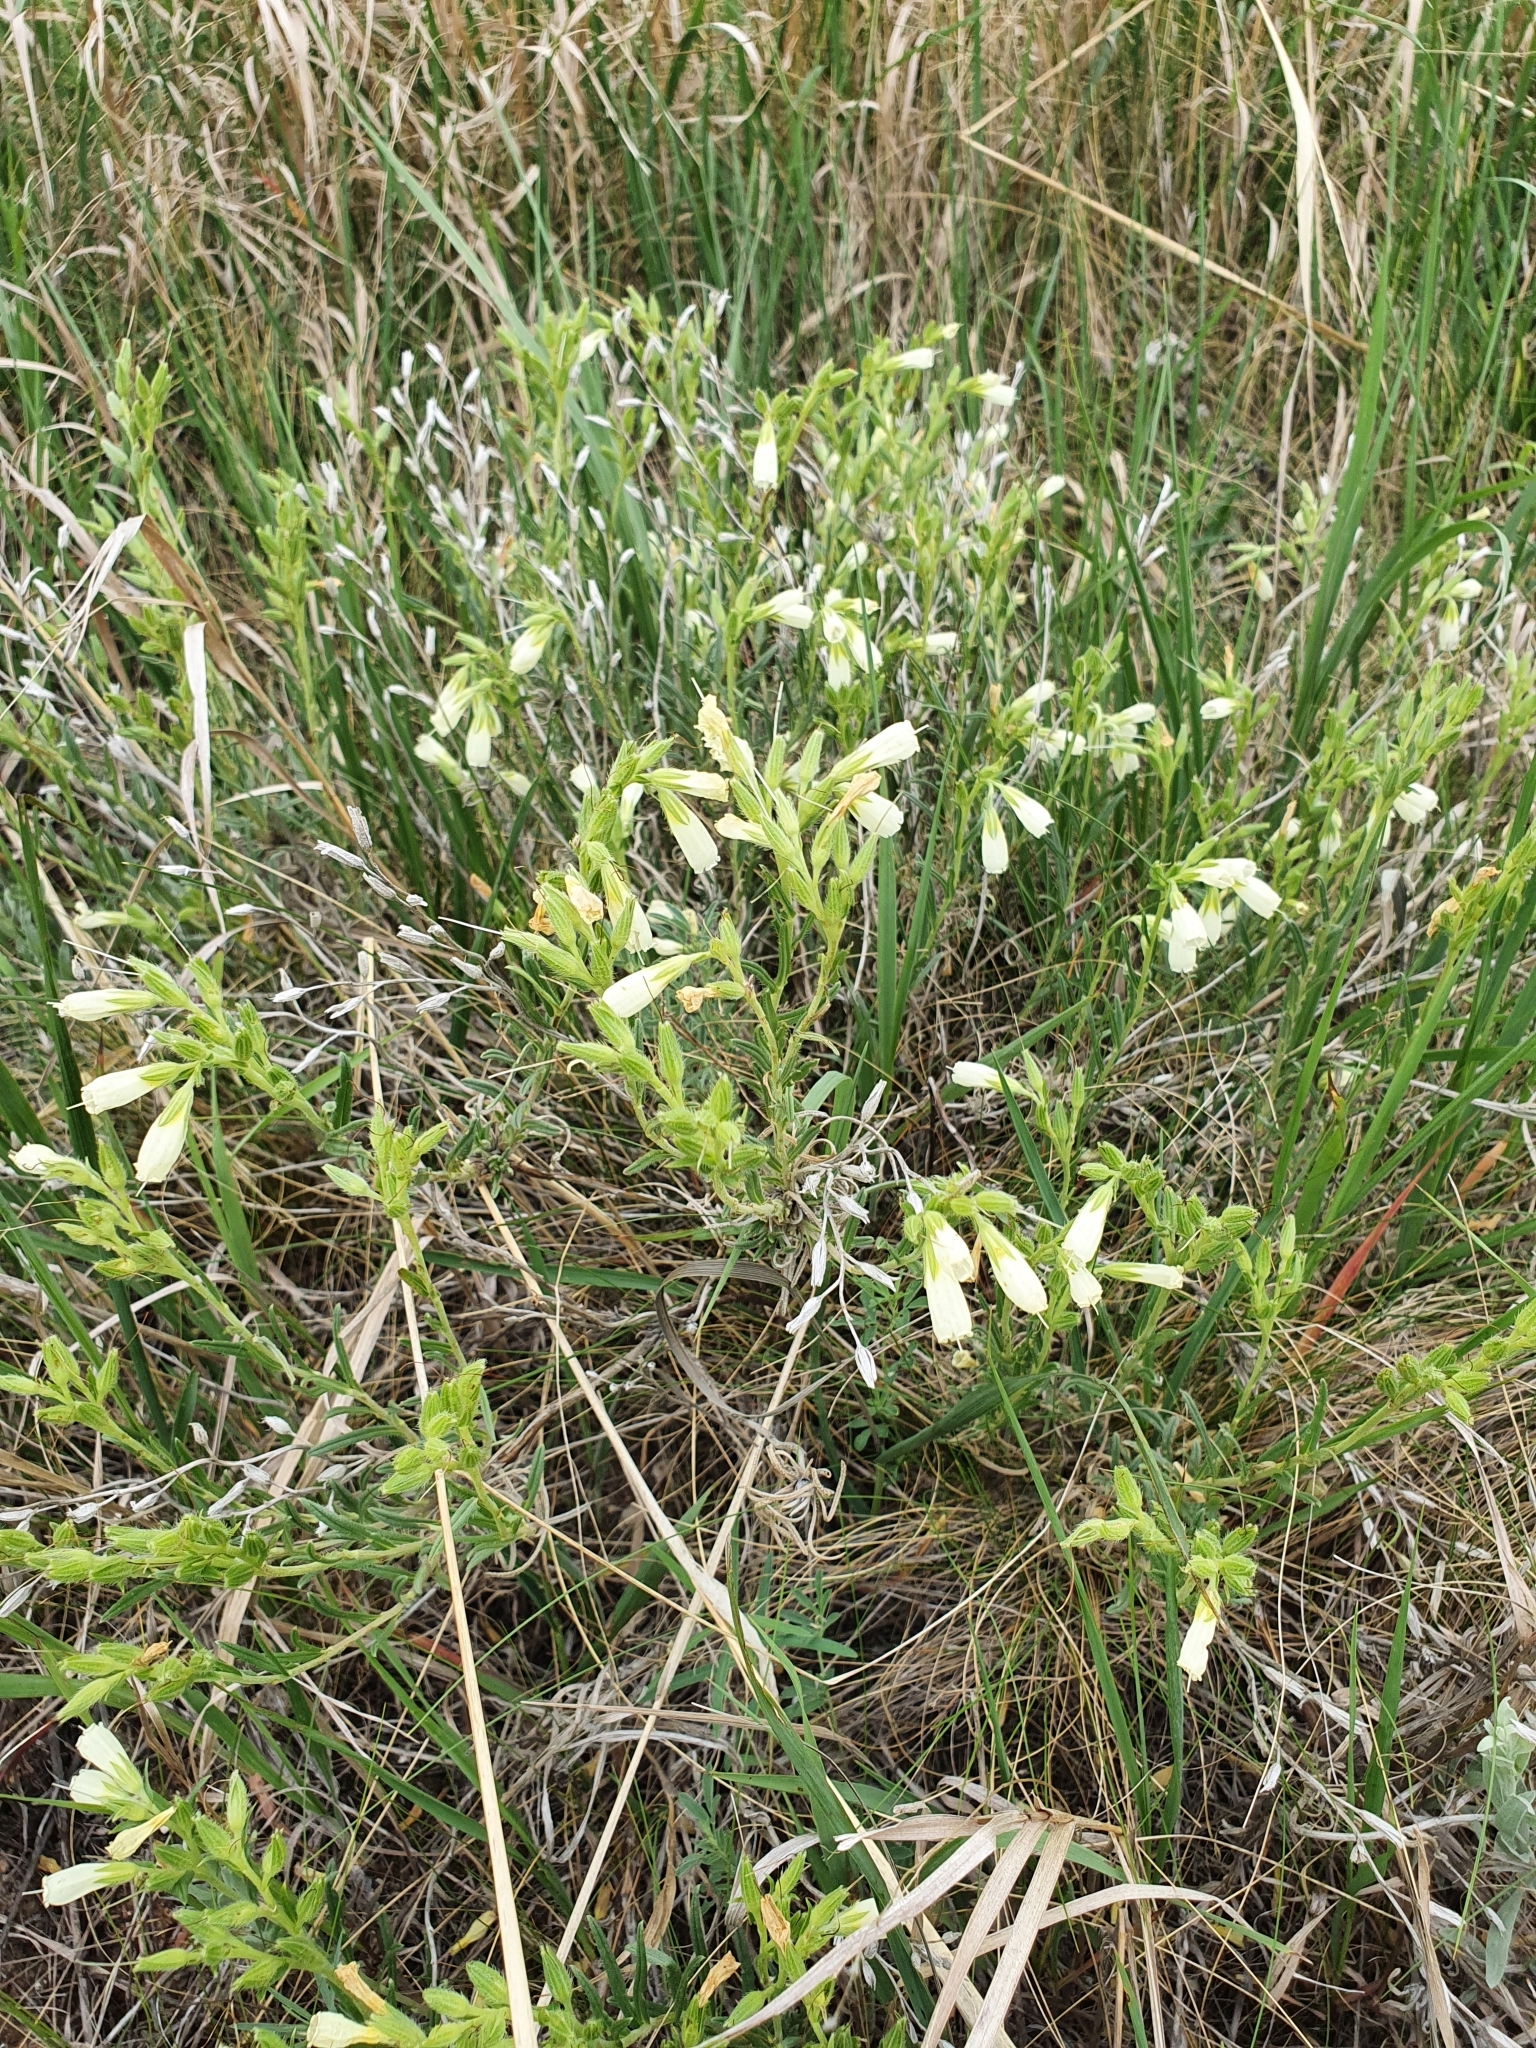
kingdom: Plantae
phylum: Tracheophyta
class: Magnoliopsida
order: Boraginales
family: Boraginaceae
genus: Onosma
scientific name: Onosma simplicissima
